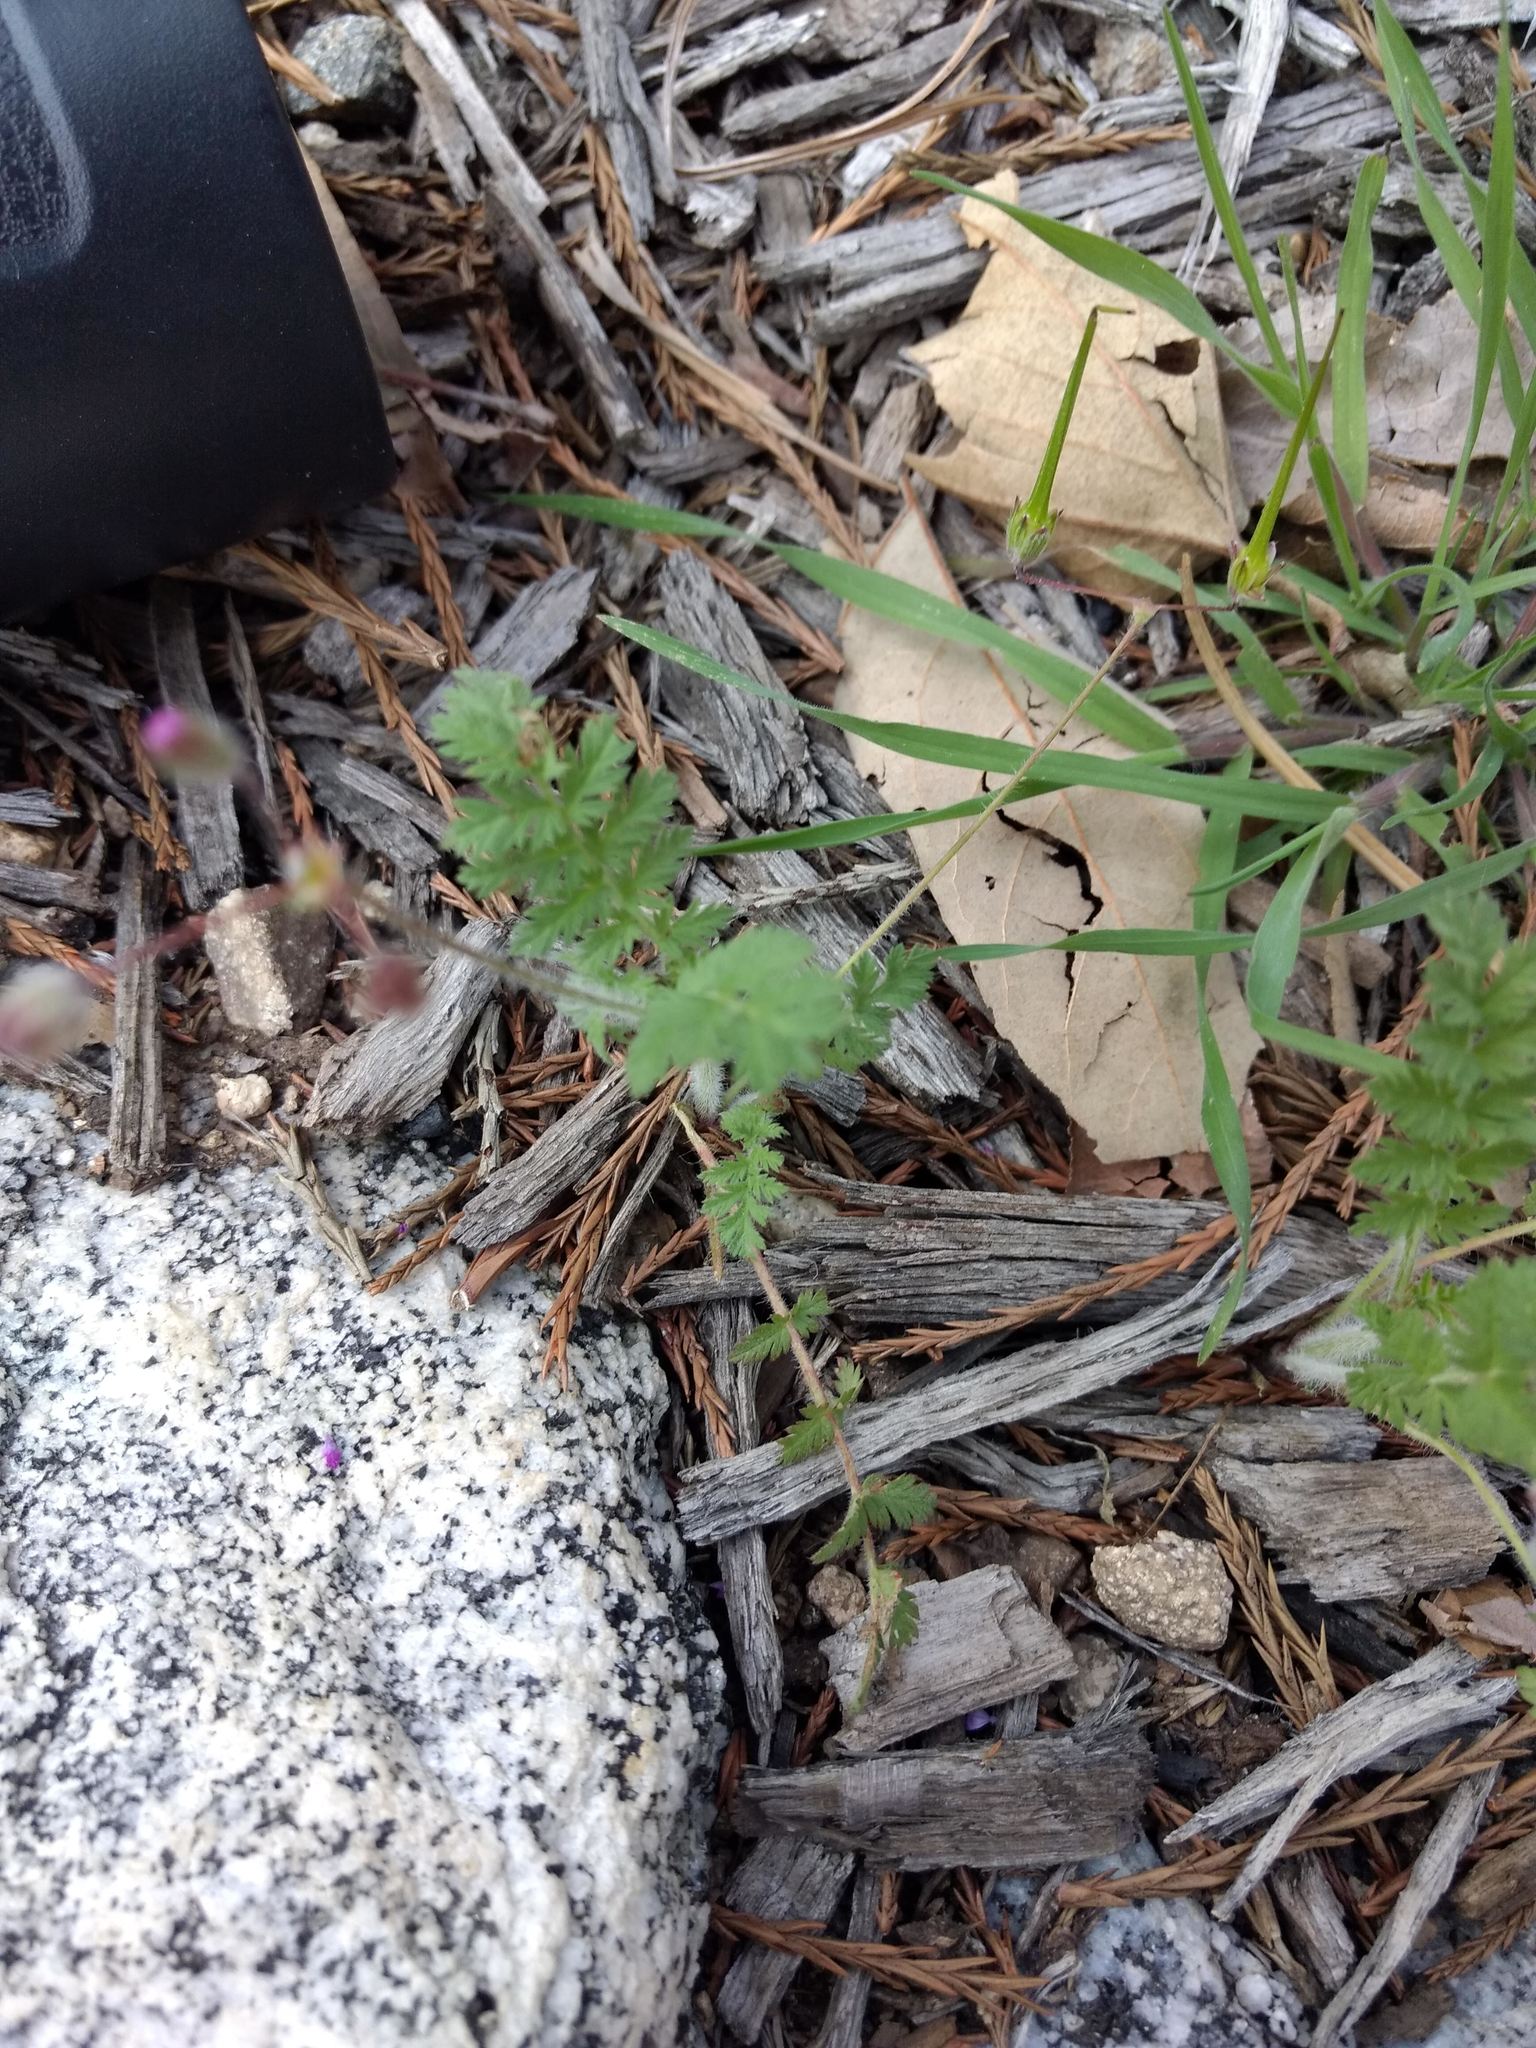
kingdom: Plantae
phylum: Tracheophyta
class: Magnoliopsida
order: Geraniales
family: Geraniaceae
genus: Erodium
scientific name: Erodium cicutarium
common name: Common stork's-bill
